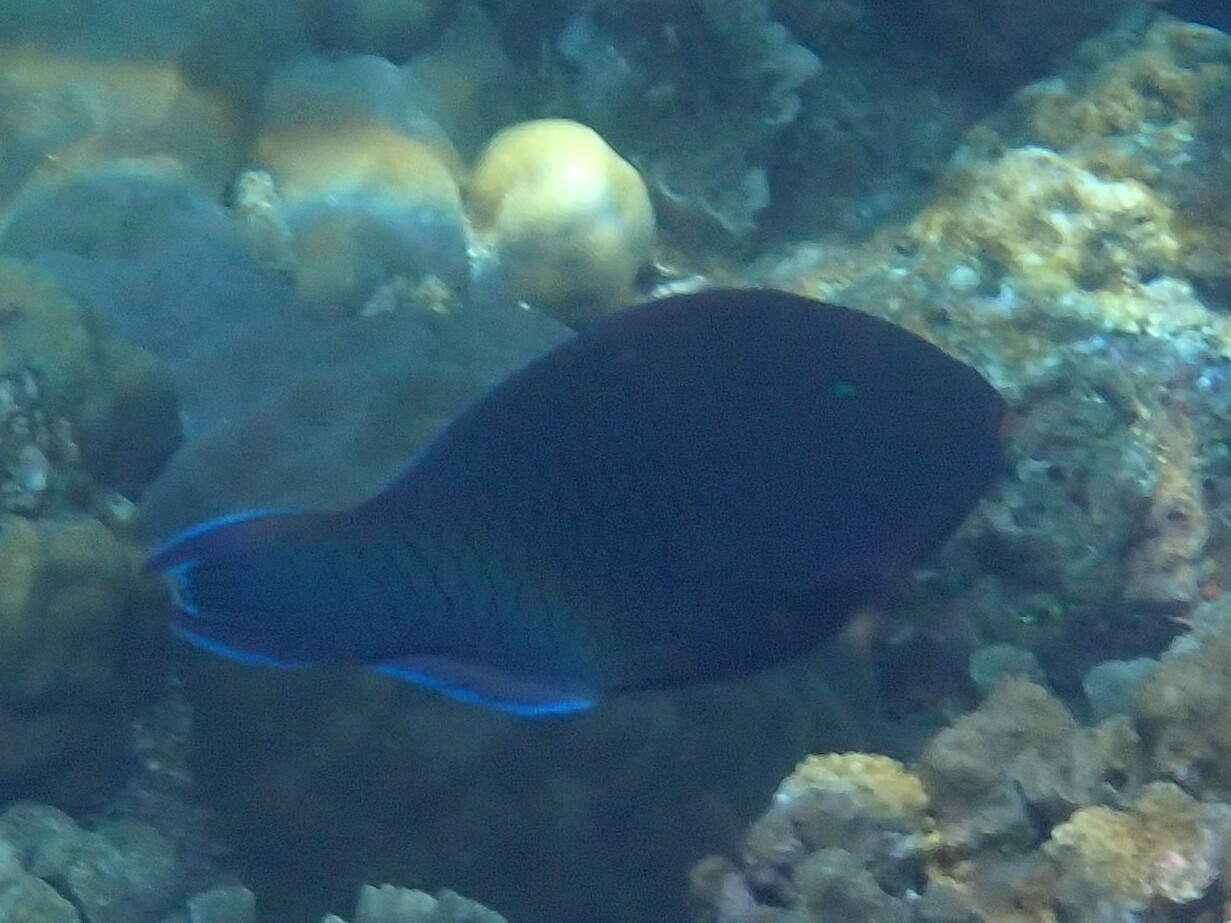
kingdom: Animalia
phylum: Chordata
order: Perciformes
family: Scaridae
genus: Scarus
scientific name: Scarus niger
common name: Dusky parrotfish
